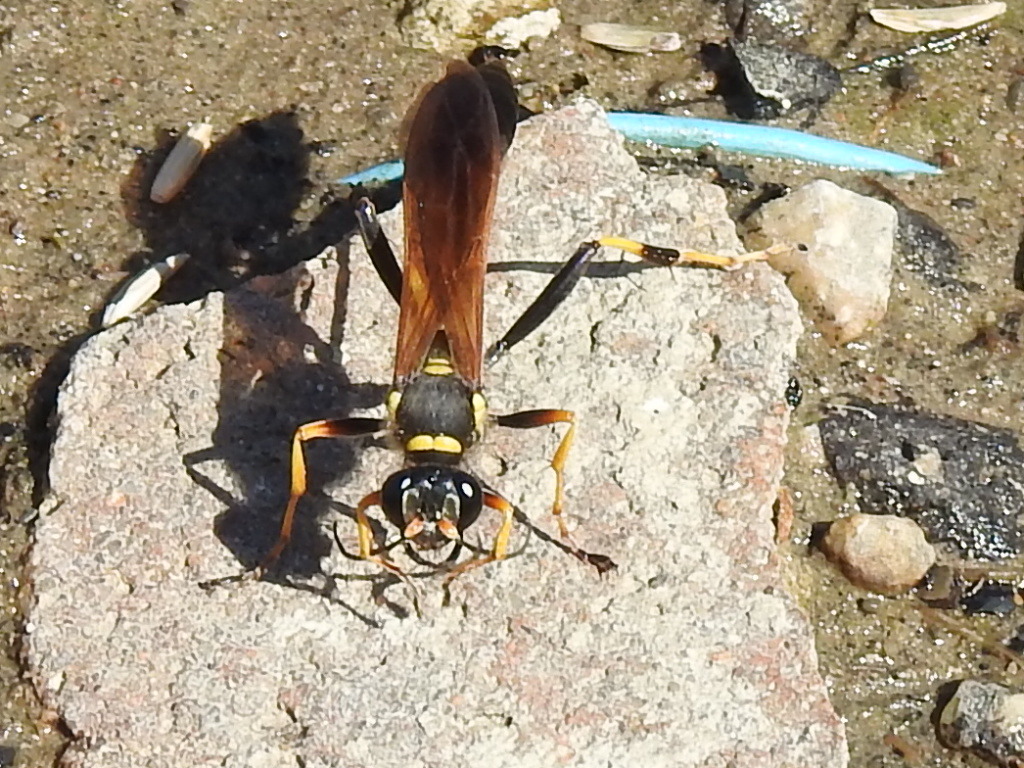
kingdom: Animalia
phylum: Arthropoda
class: Insecta
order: Hymenoptera
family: Sphecidae
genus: Sceliphron
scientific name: Sceliphron caementarium
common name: Mud dauber
